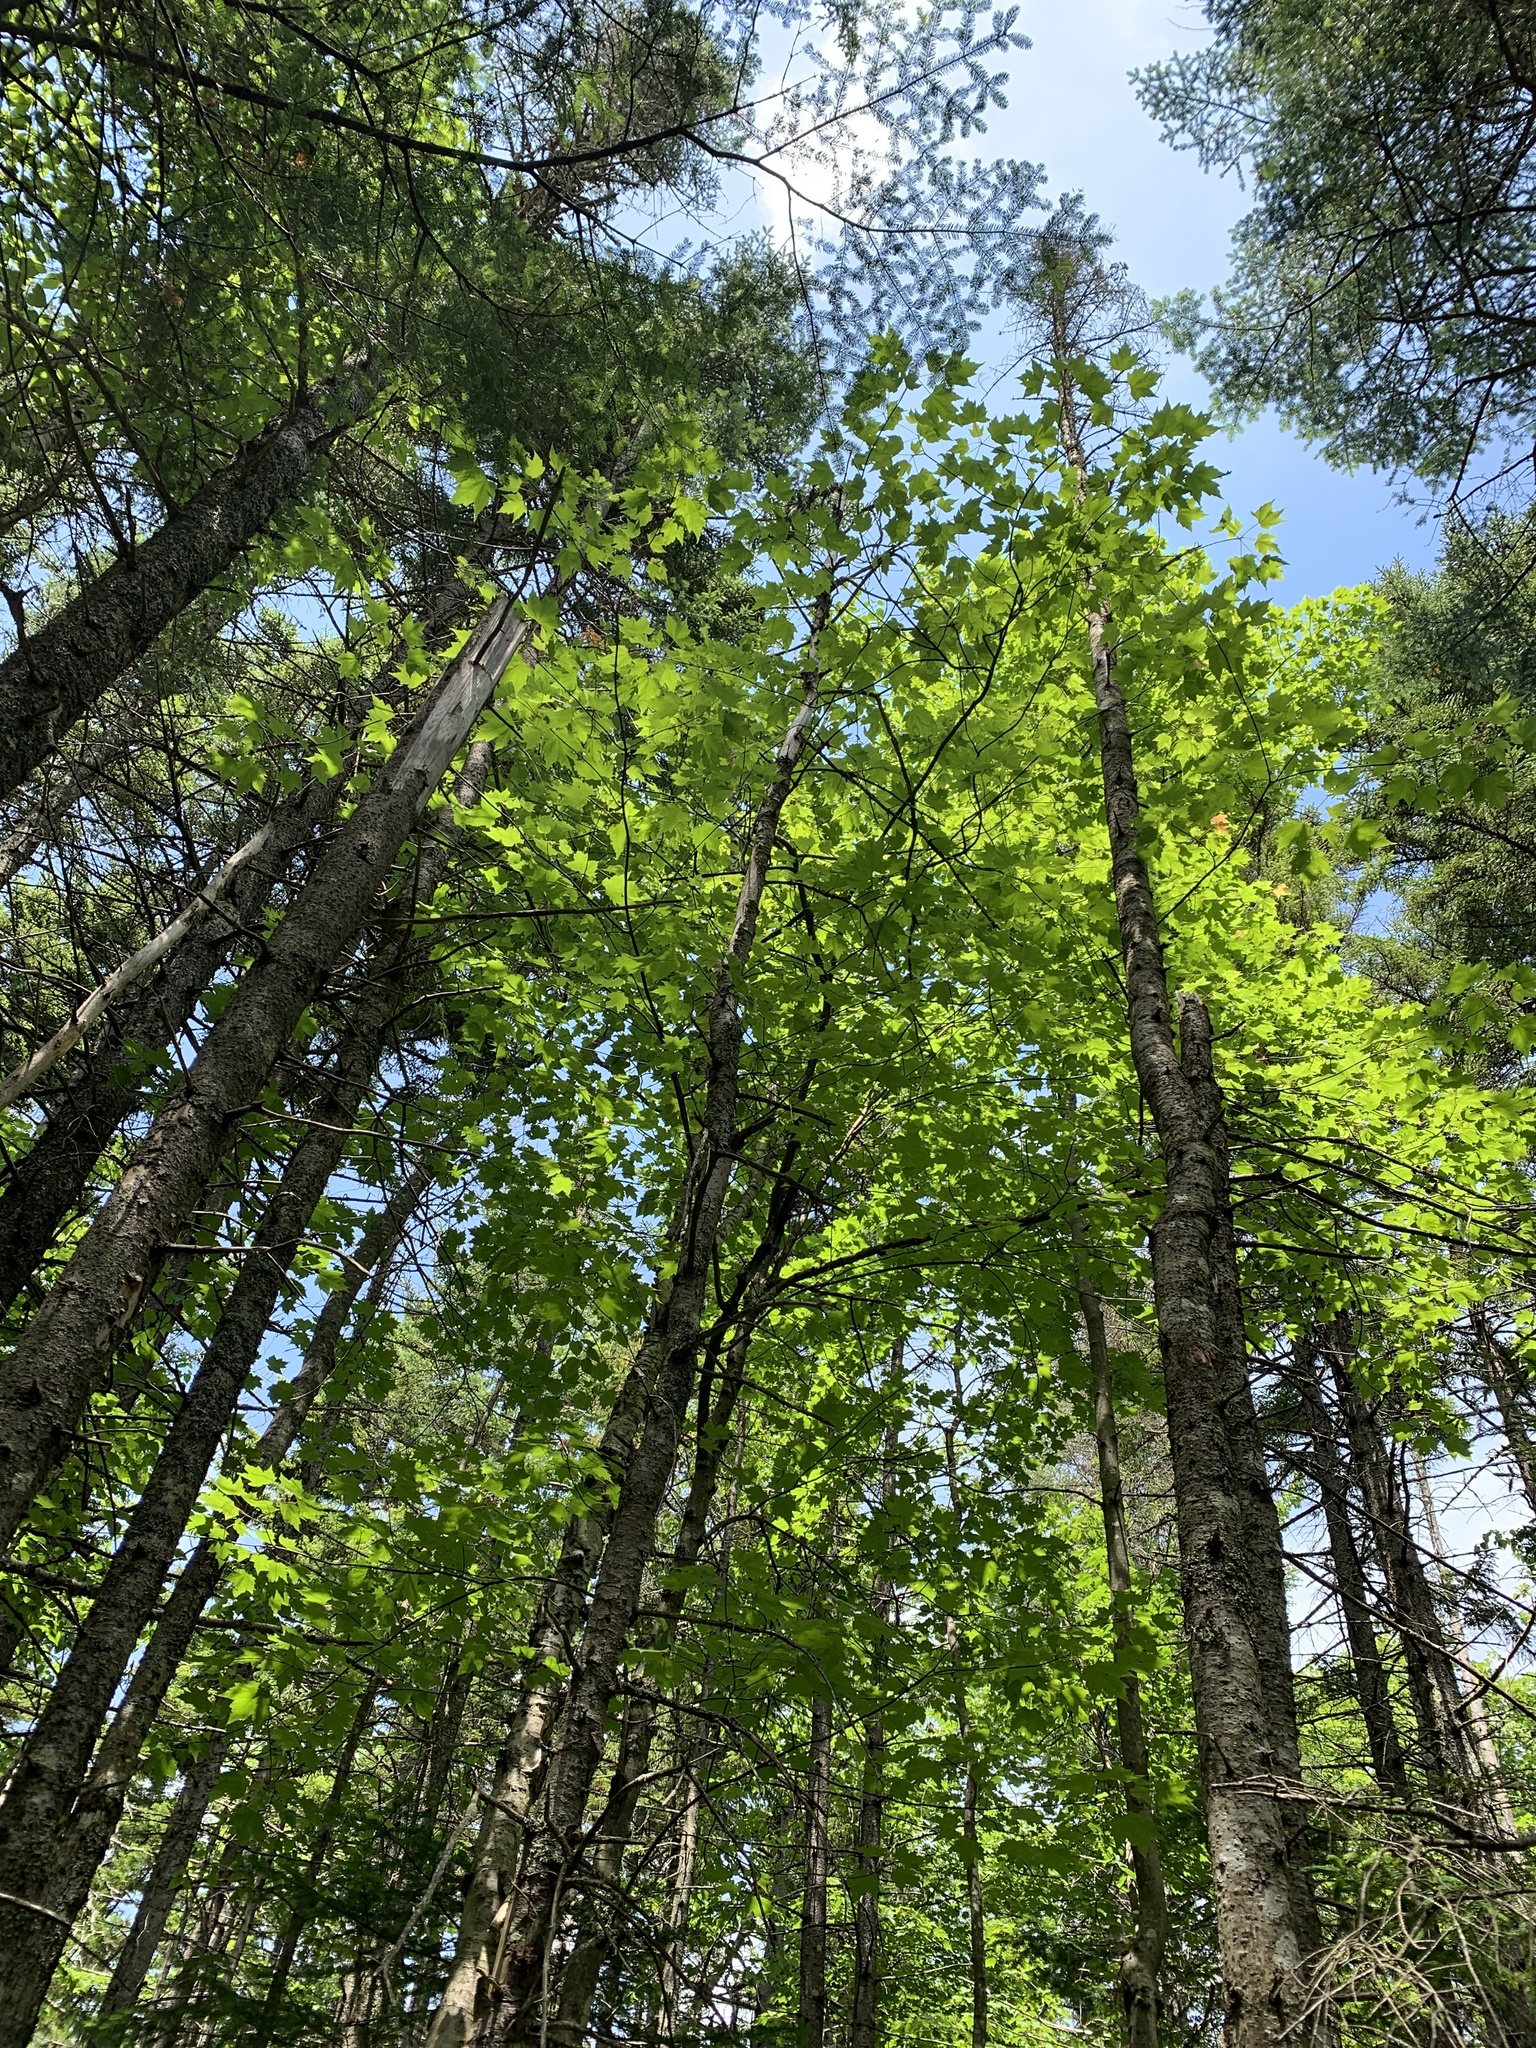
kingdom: Plantae
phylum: Tracheophyta
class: Magnoliopsida
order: Sapindales
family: Sapindaceae
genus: Acer
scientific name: Acer rubrum
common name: Red maple
